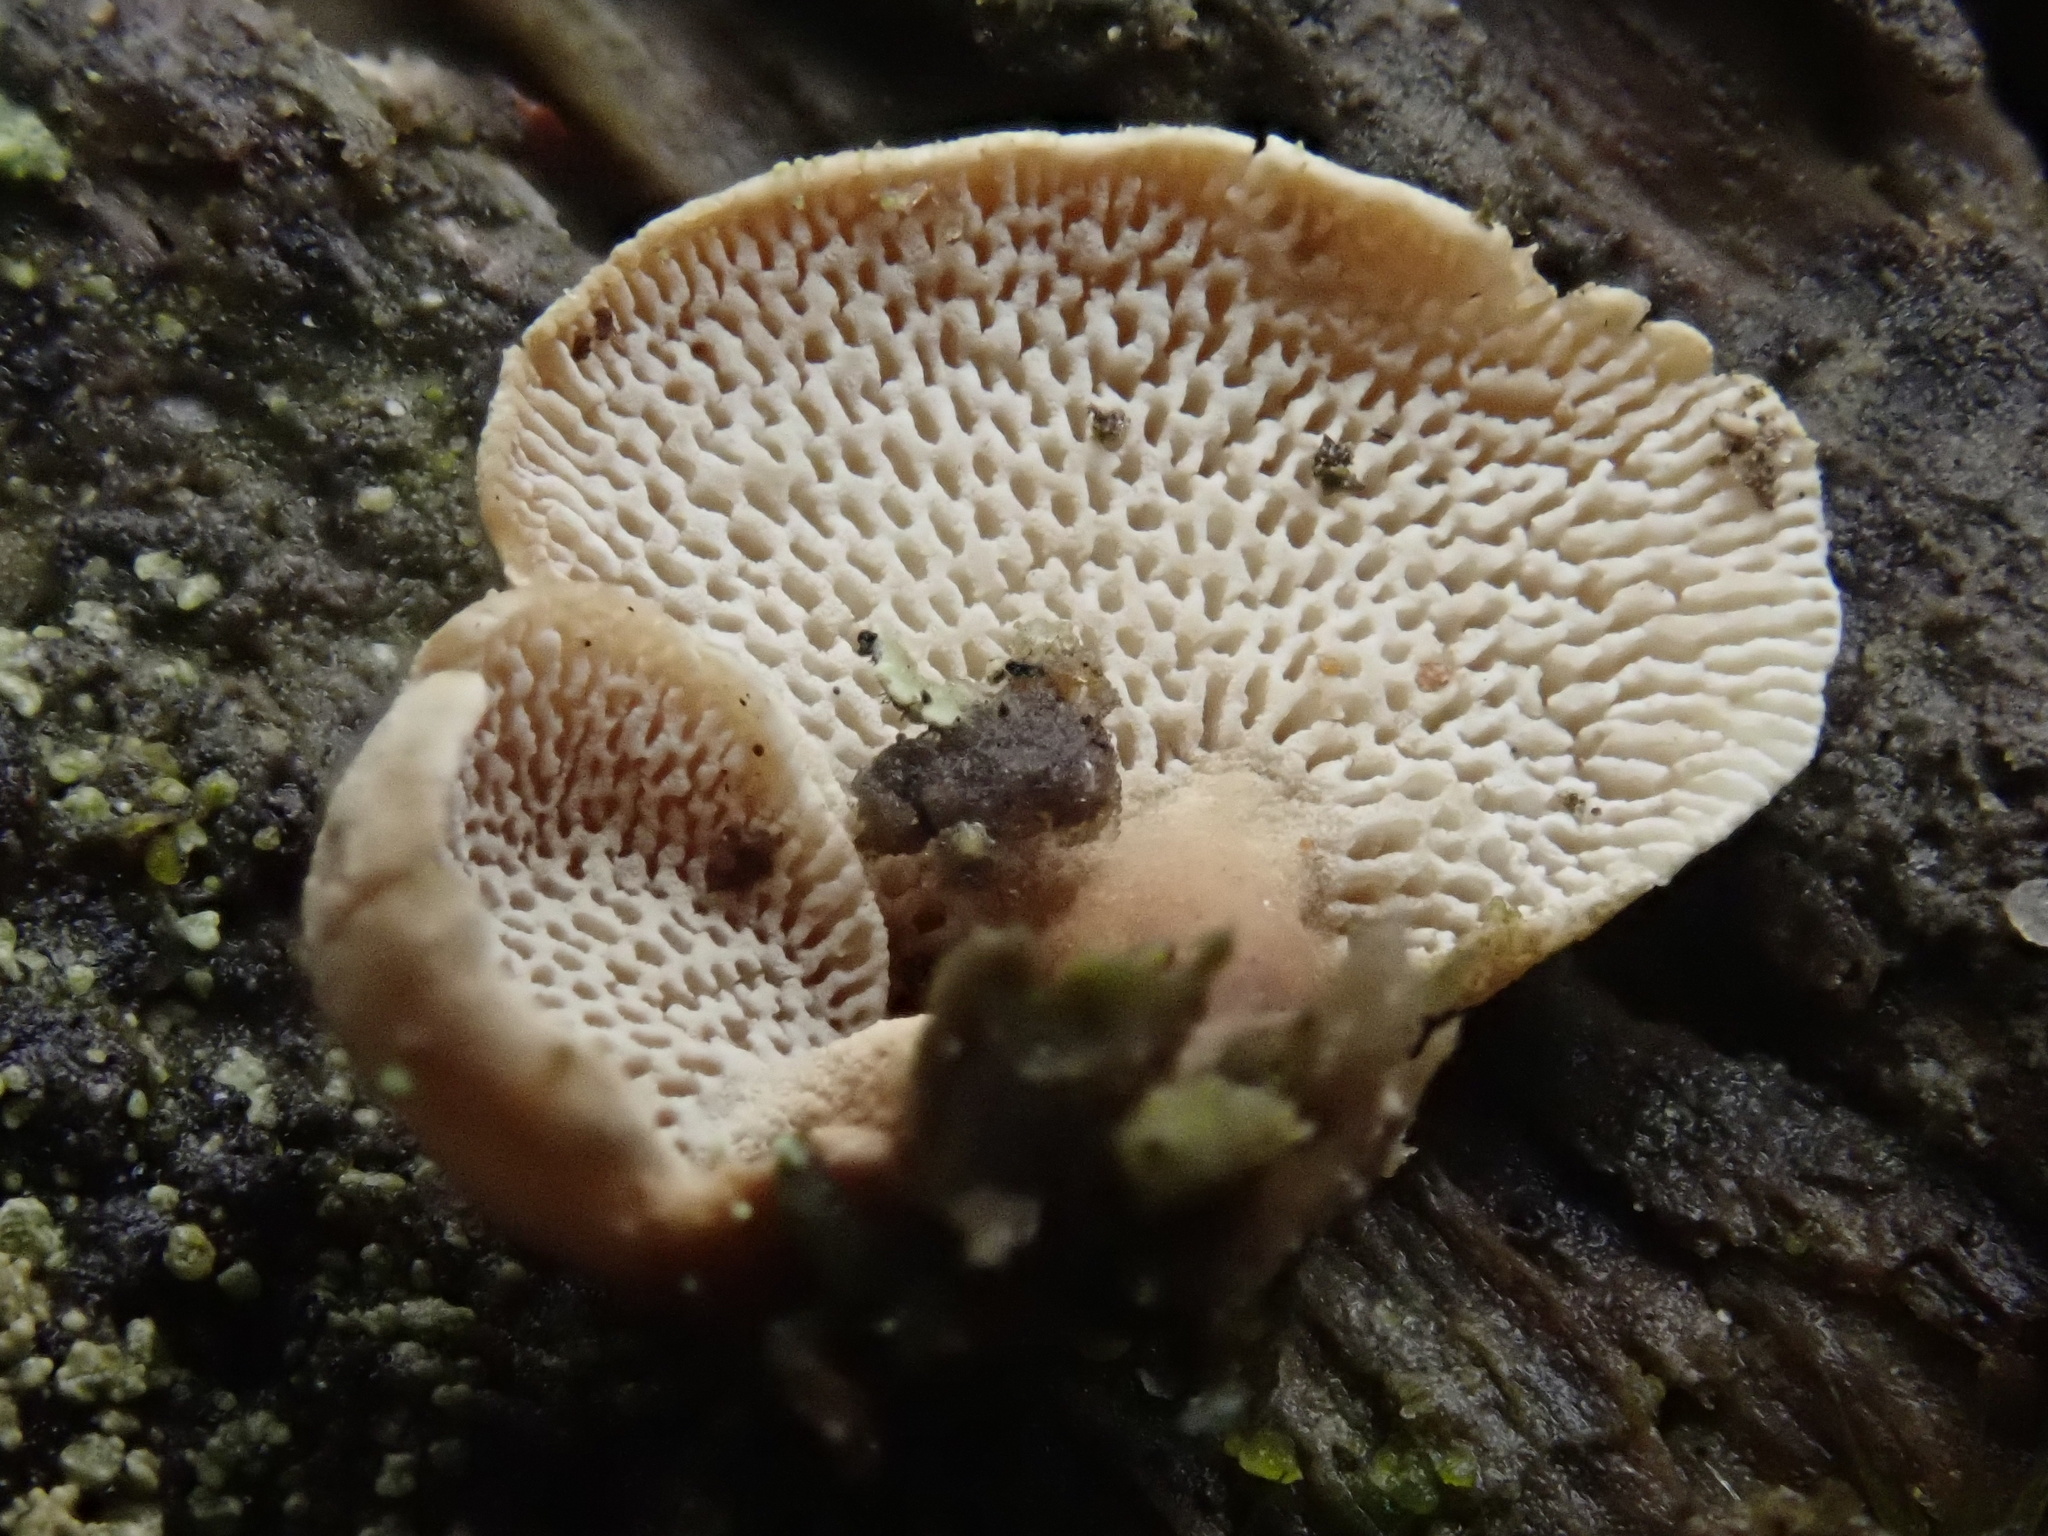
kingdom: Fungi
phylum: Basidiomycota
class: Agaricomycetes
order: Agaricales
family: Mycenaceae
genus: Panellus
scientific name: Panellus pusillus
